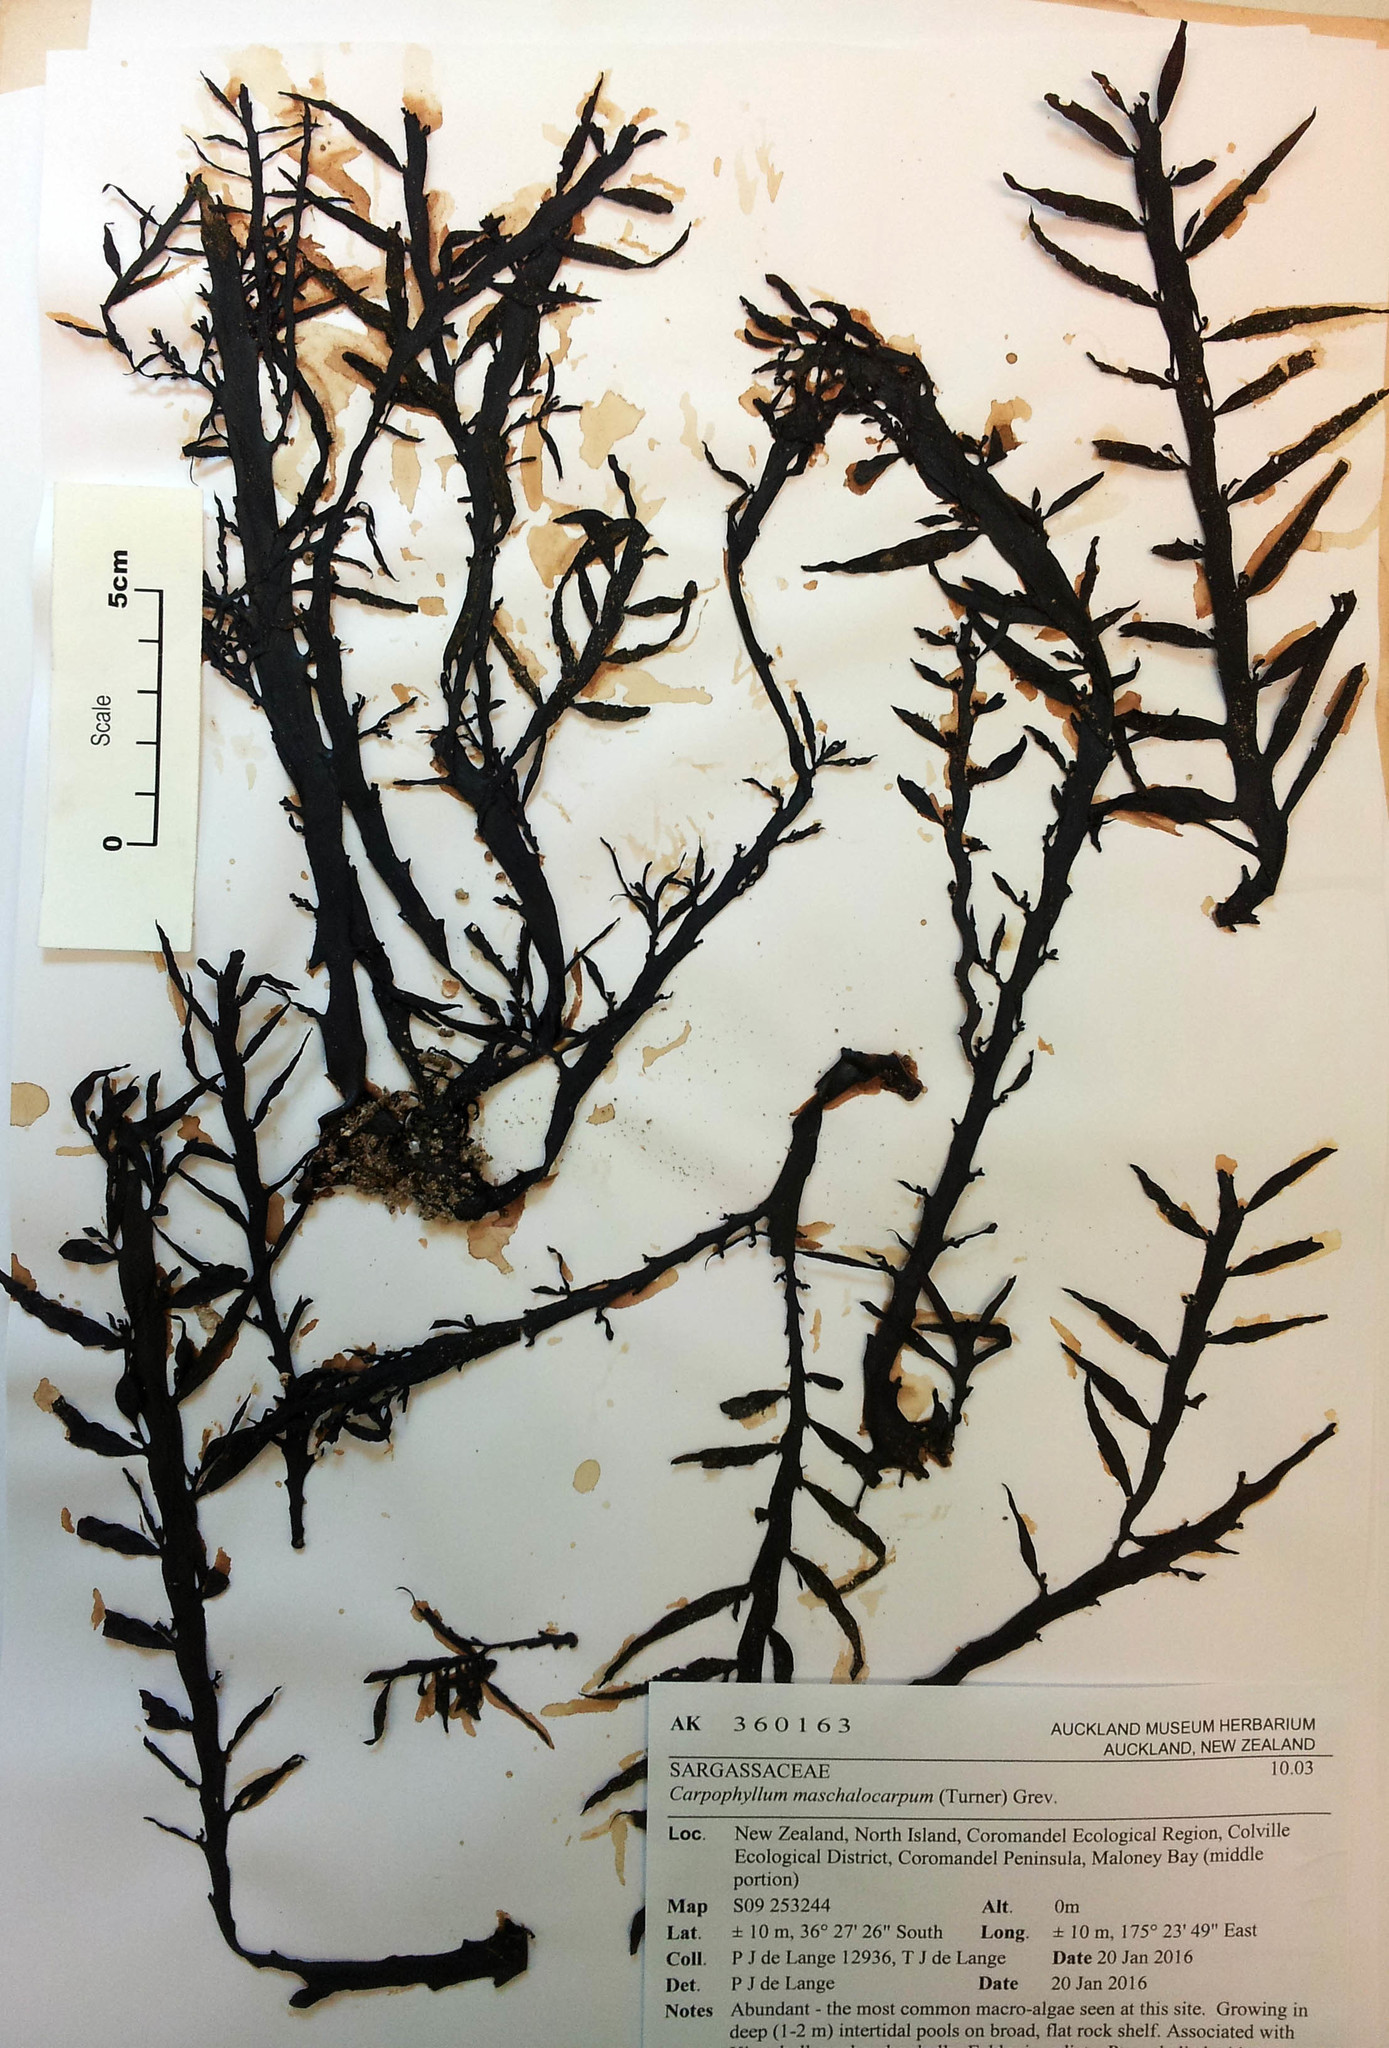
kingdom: Chromista
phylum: Ochrophyta
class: Phaeophyceae
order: Fucales
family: Sargassaceae
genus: Carpophyllum
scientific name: Carpophyllum maschalocarpum
